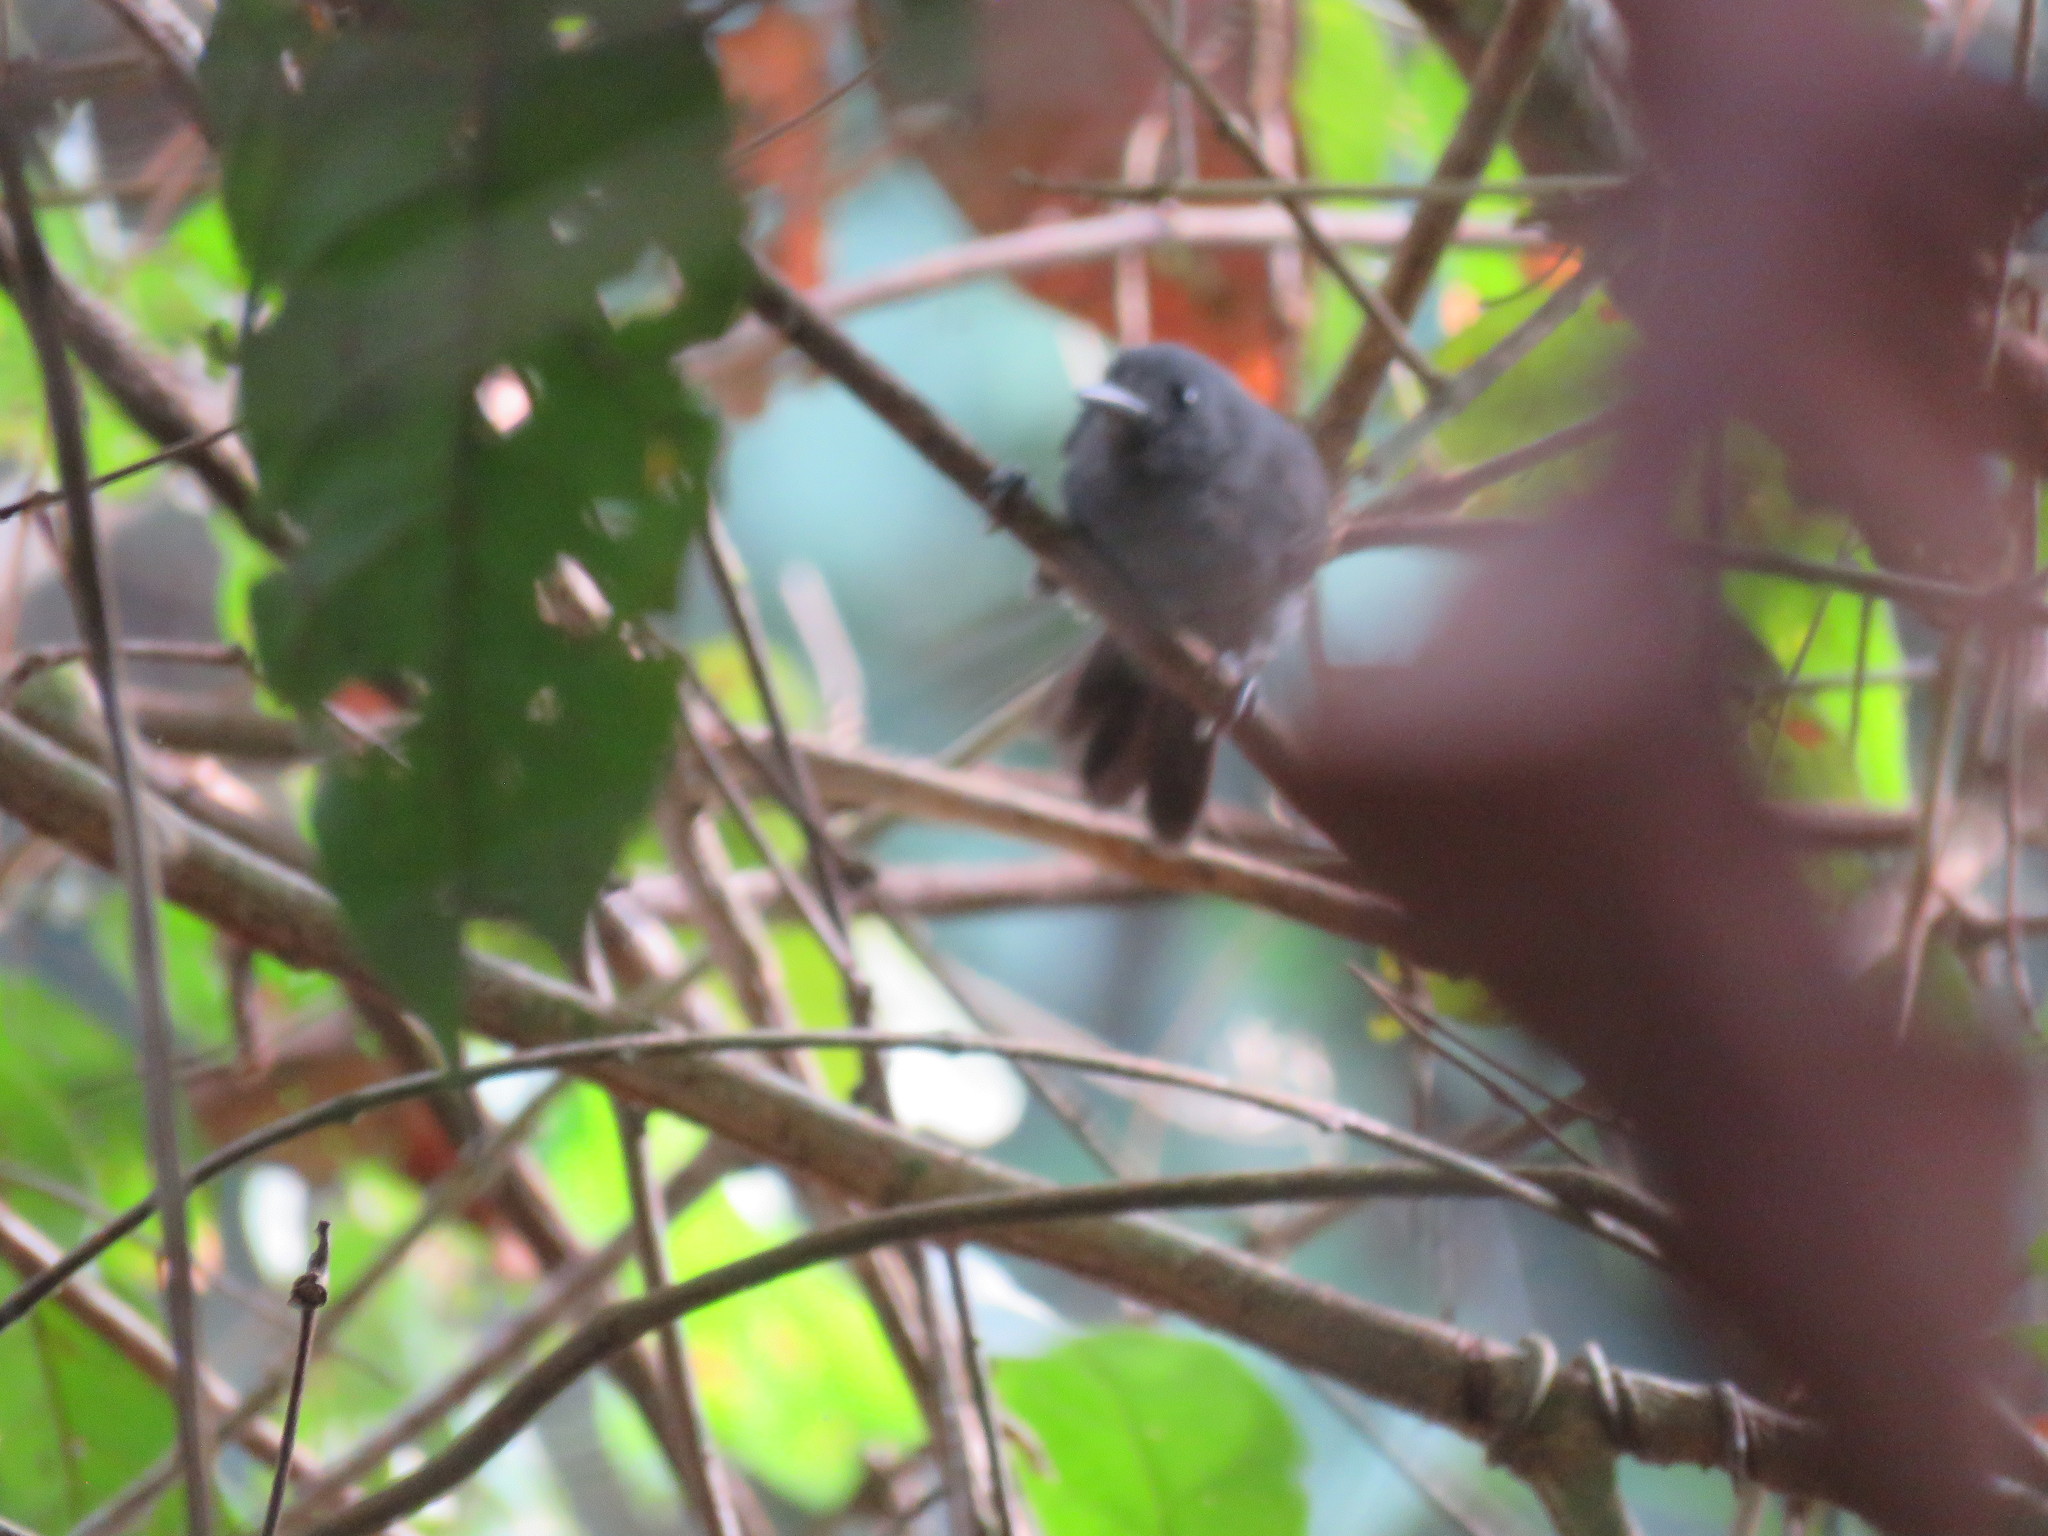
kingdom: Animalia
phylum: Chordata
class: Aves
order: Passeriformes
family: Thamnophilidae
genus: Cercomacra
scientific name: Cercomacra nigrescens
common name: Blackish antbird
